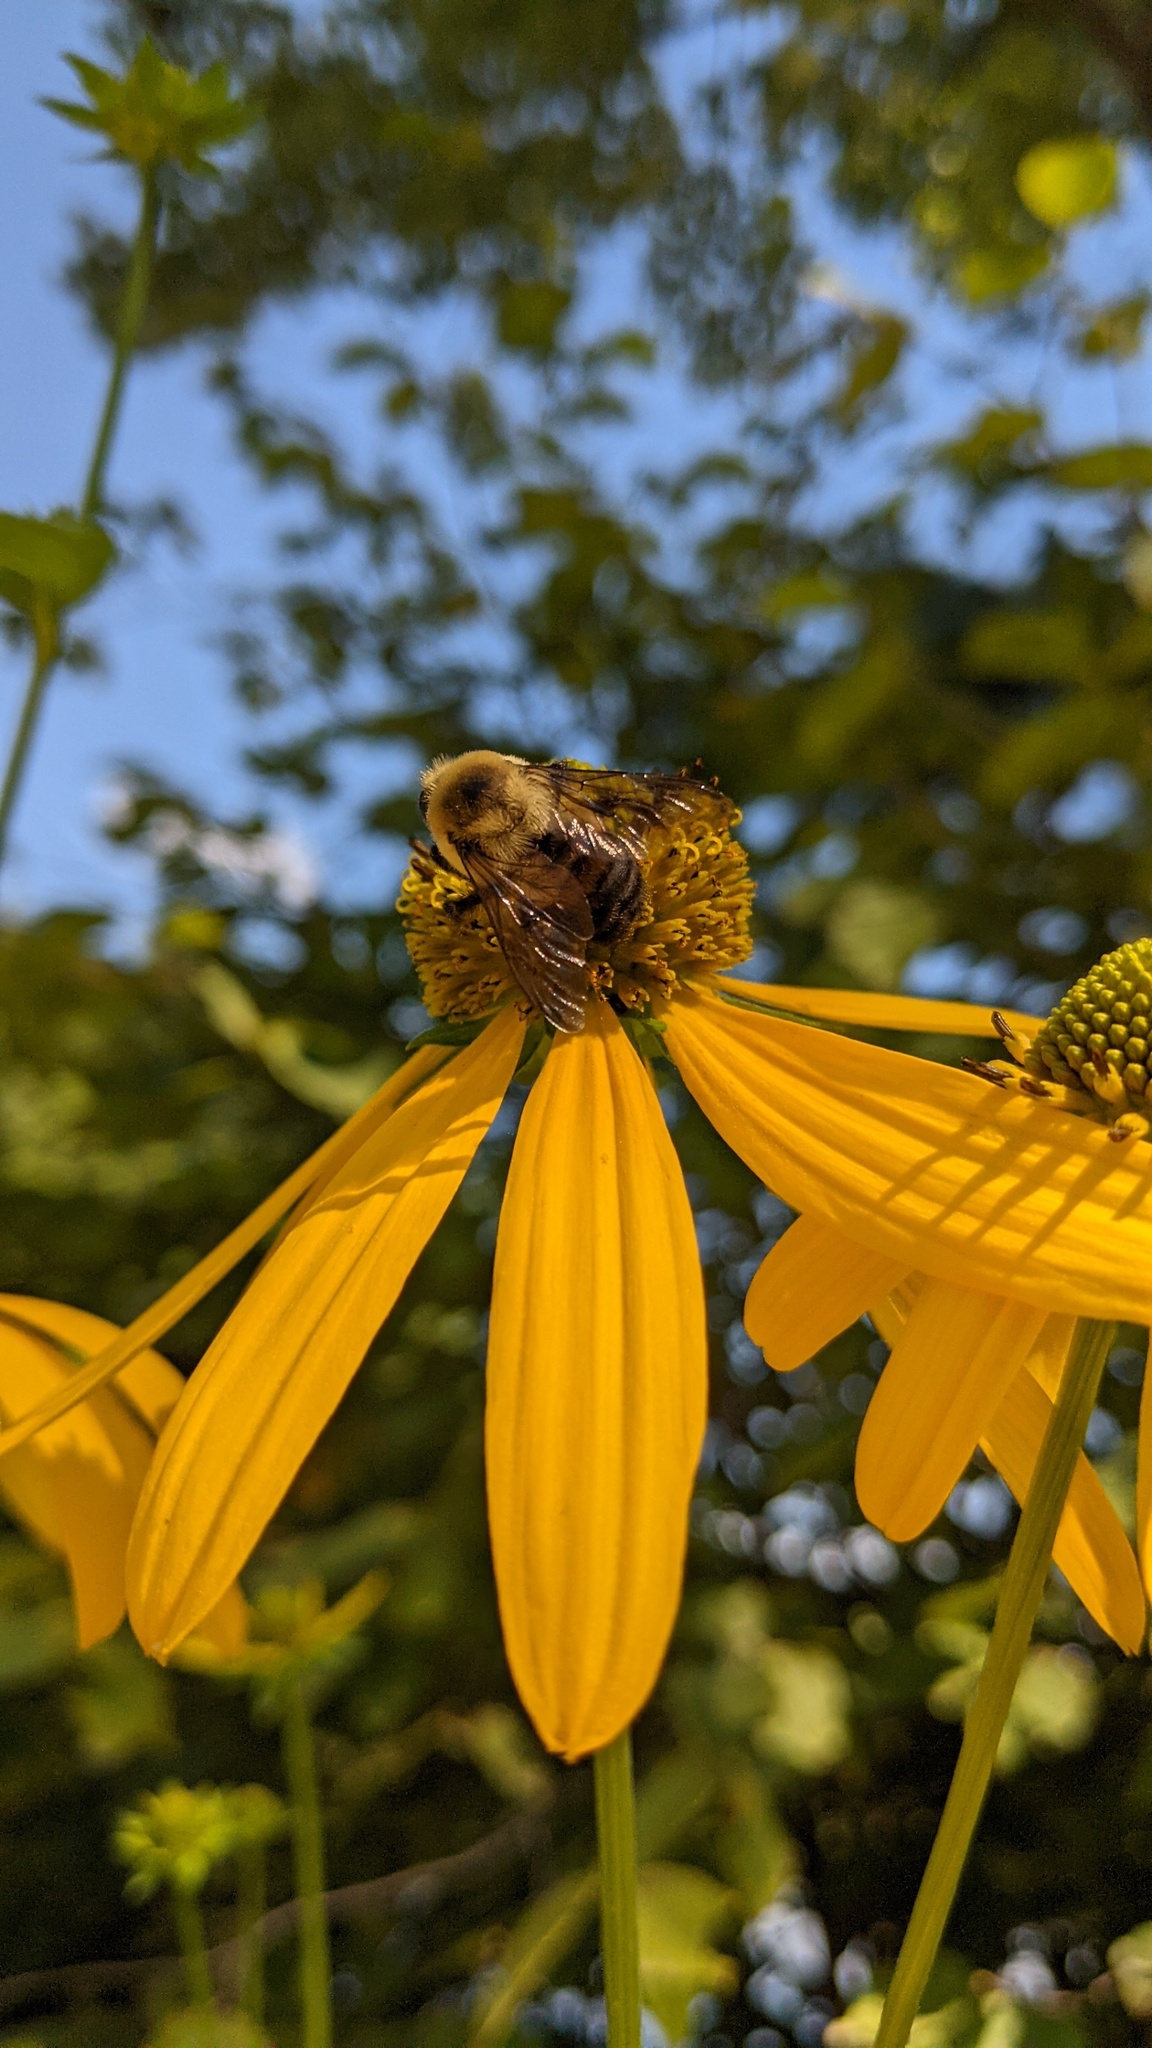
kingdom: Animalia
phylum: Arthropoda
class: Insecta
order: Hymenoptera
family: Apidae
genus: Bombus
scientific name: Bombus griseocollis
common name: Brown-belted bumble bee
